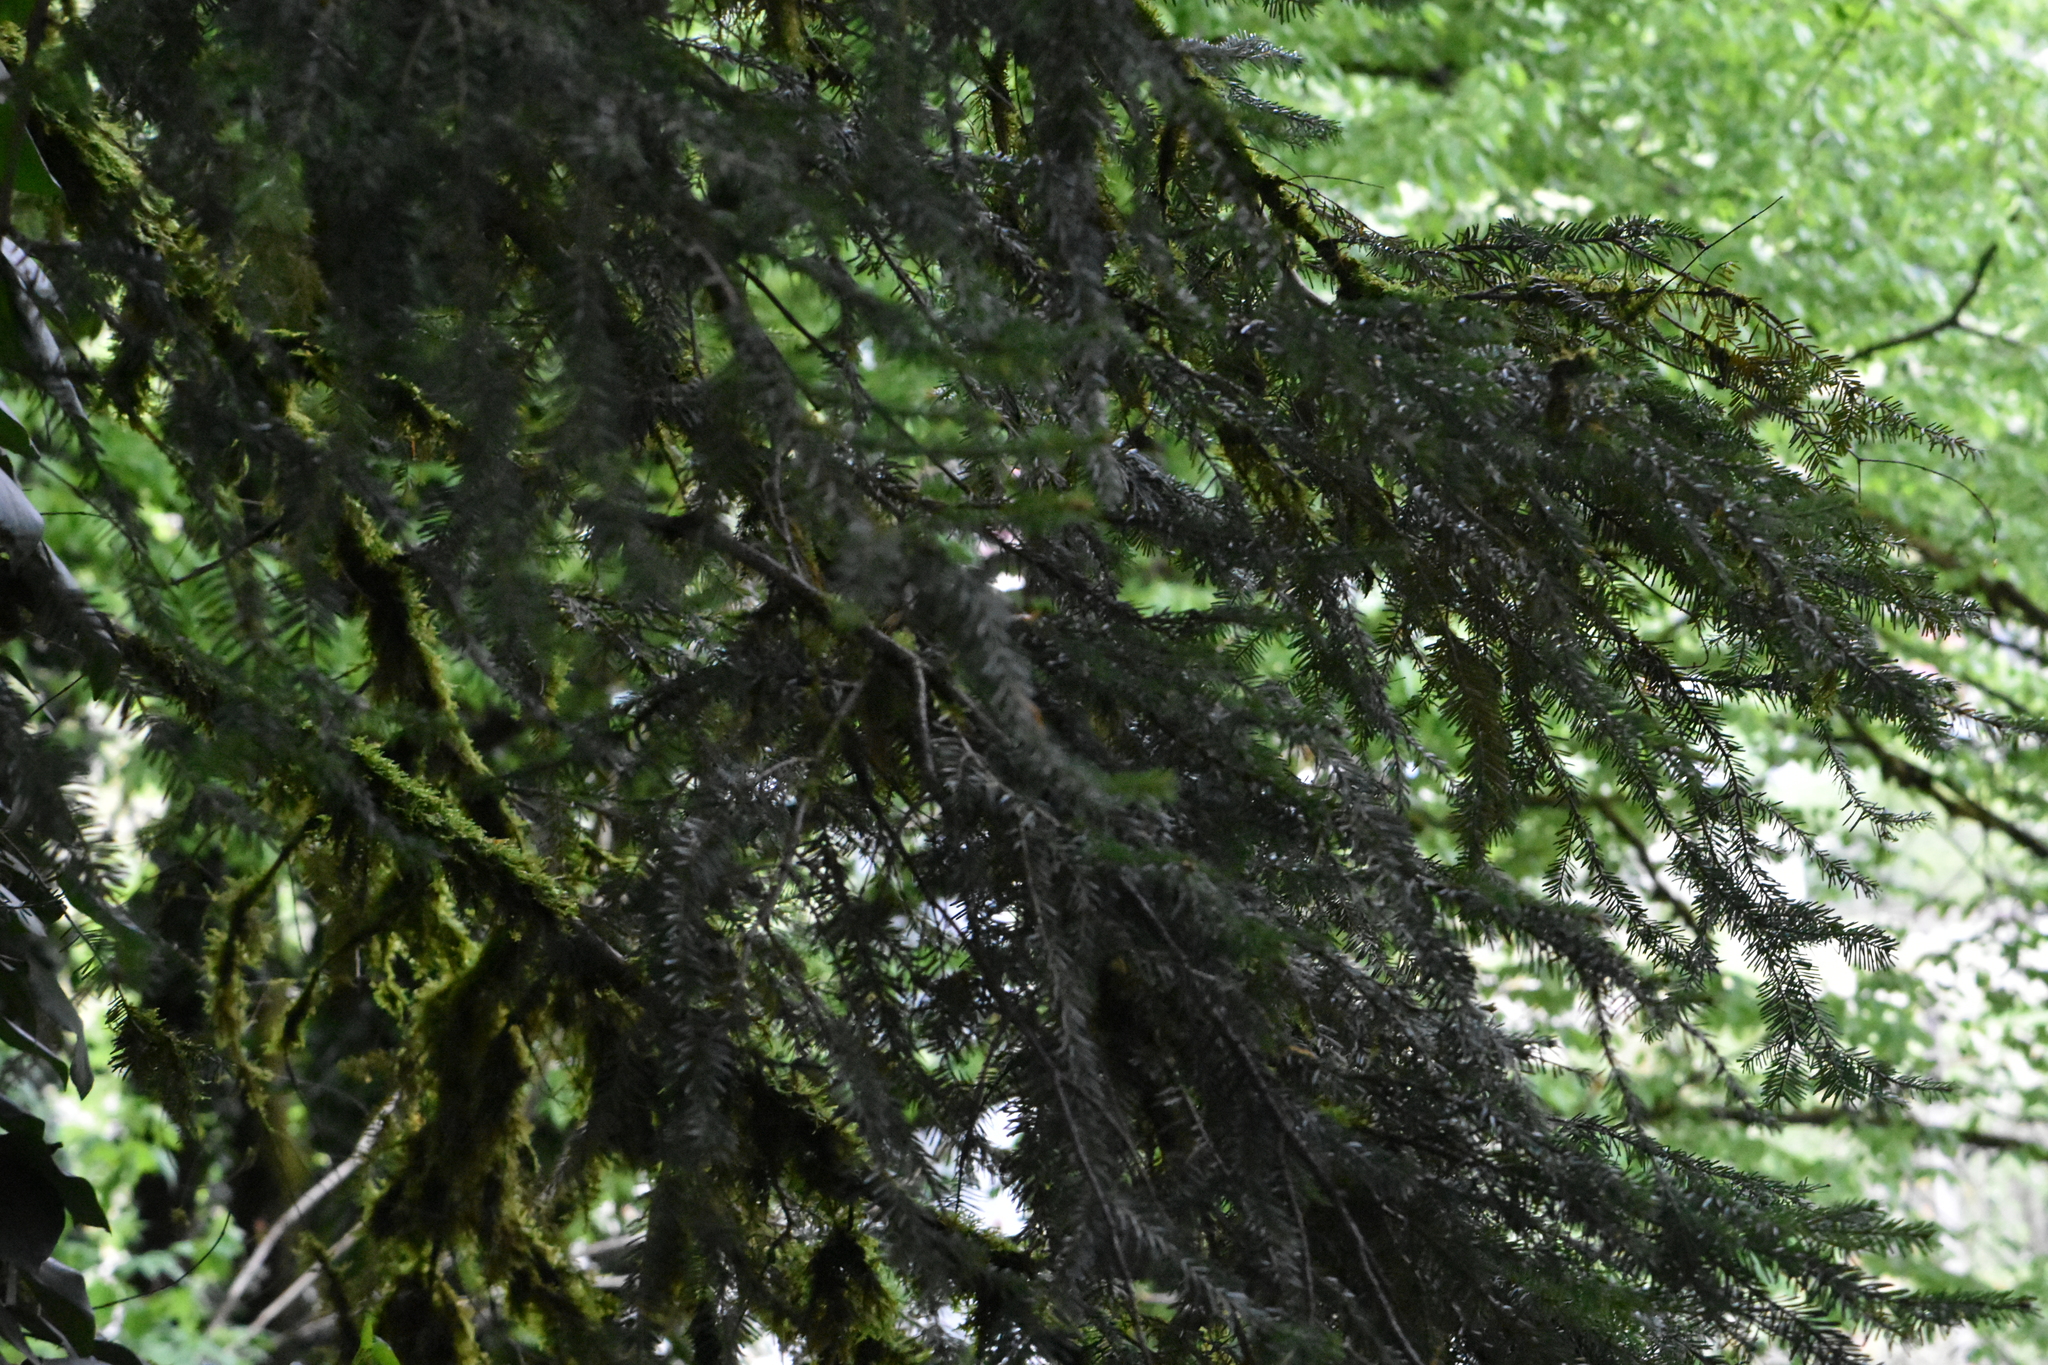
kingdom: Plantae
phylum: Tracheophyta
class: Pinopsida
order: Pinales
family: Pinaceae
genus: Abies
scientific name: Abies nordmanniana
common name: Caucasian fir
